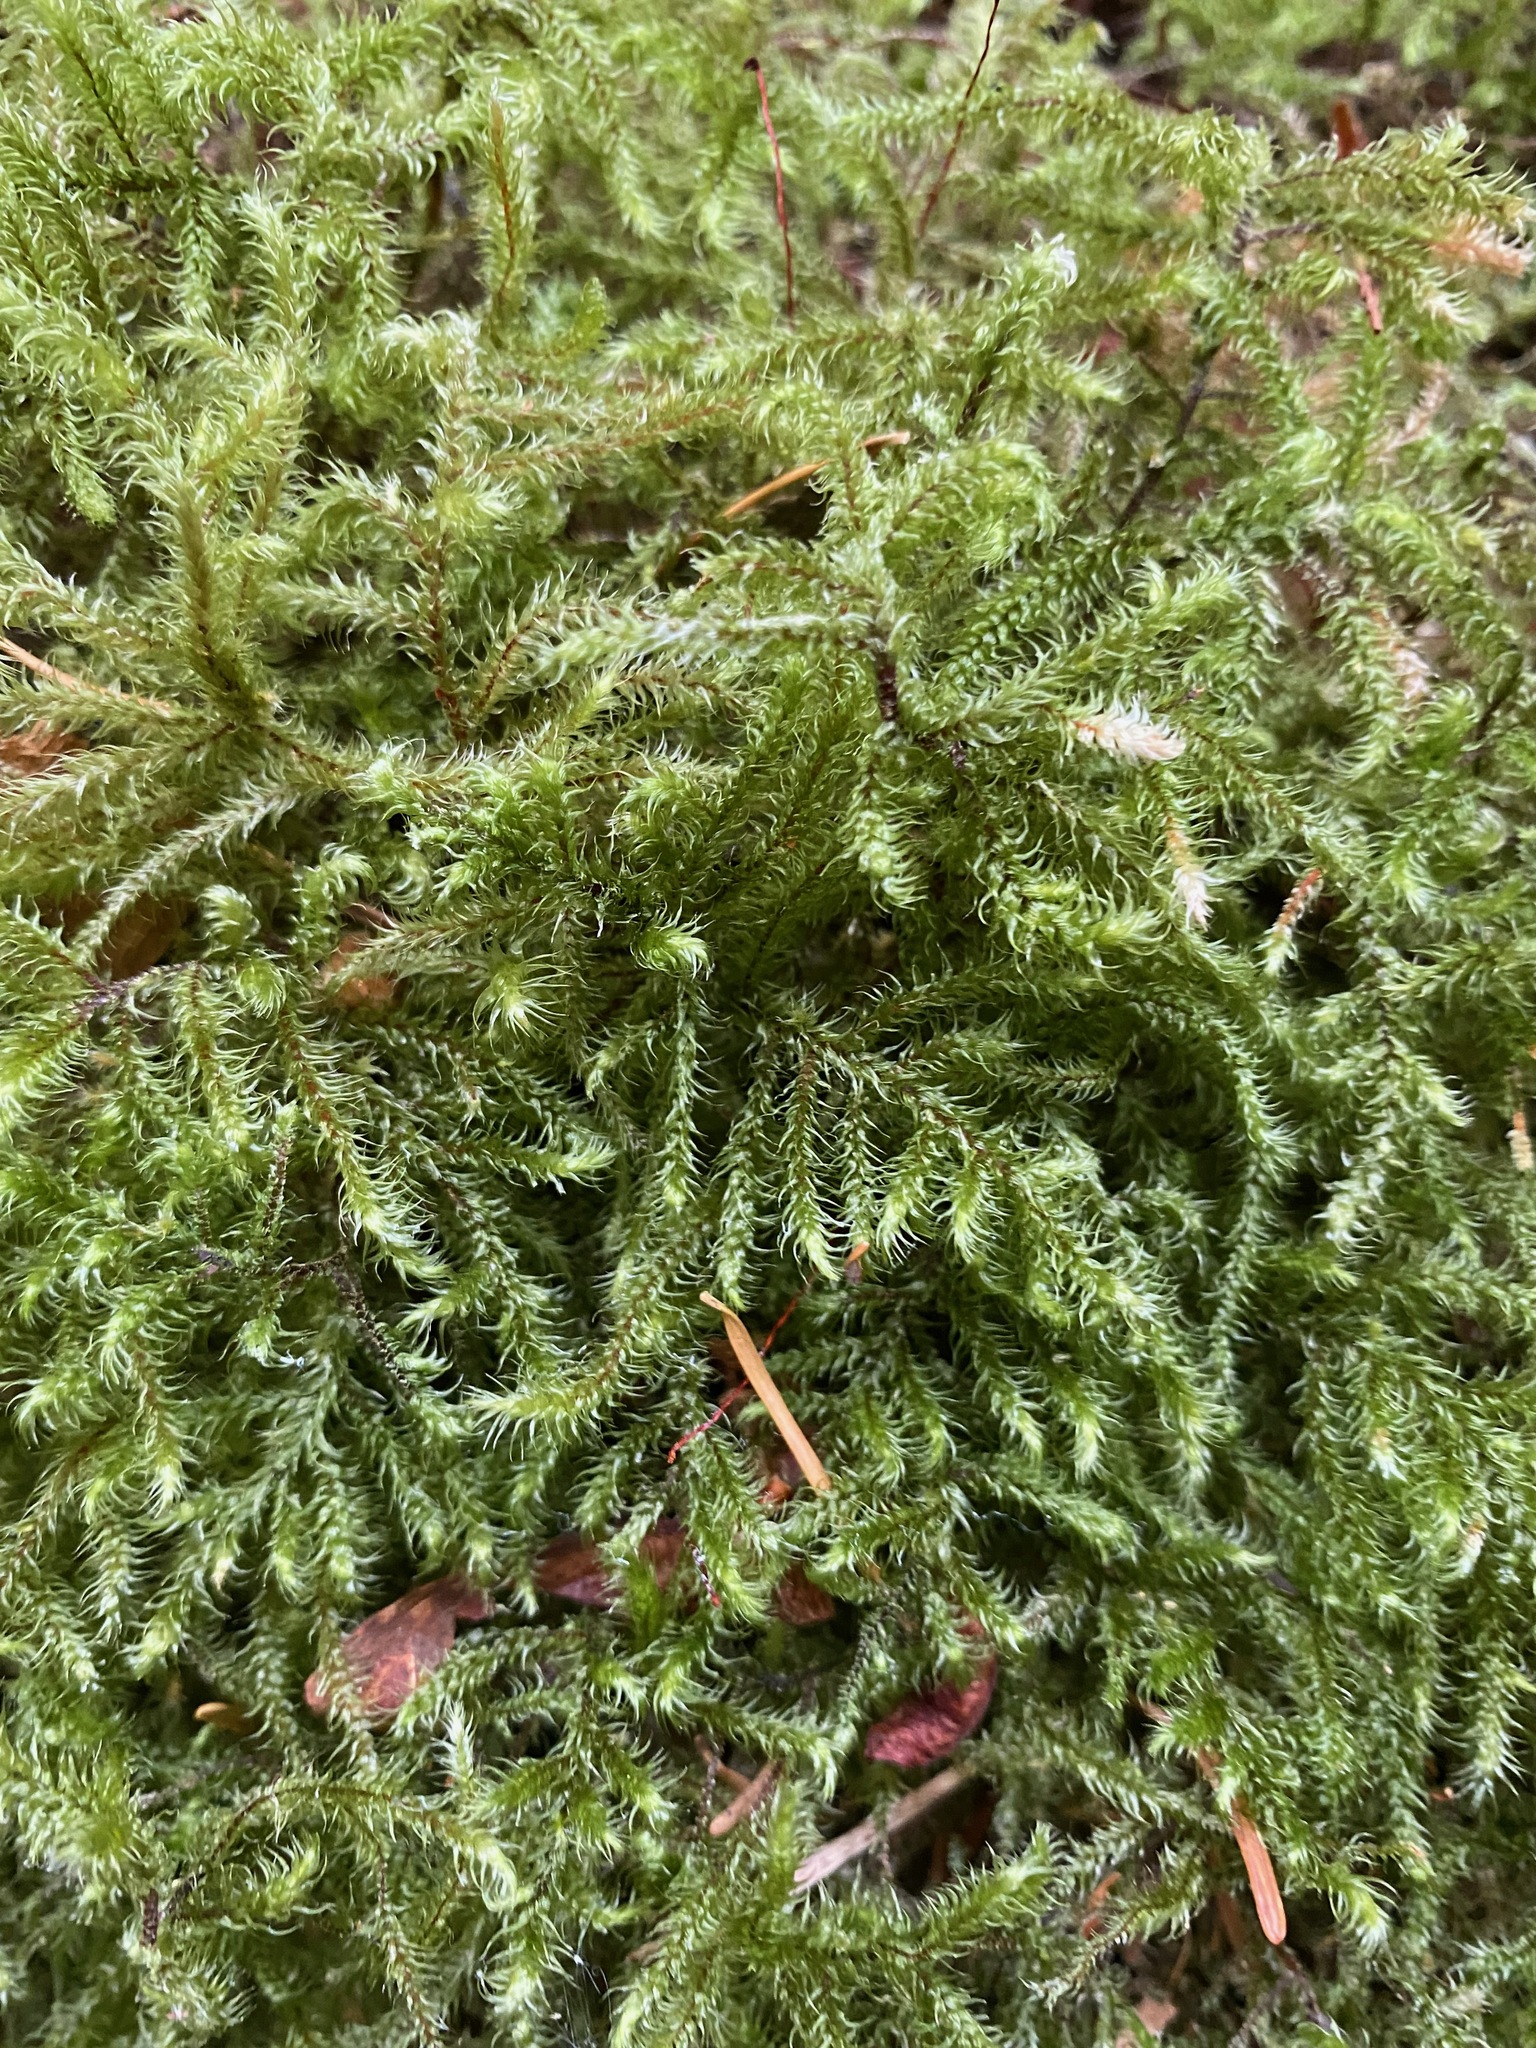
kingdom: Plantae
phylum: Bryophyta
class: Bryopsida
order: Hypnales
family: Hylocomiaceae
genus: Rhytidiadelphus
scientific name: Rhytidiadelphus loreus
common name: Lanky moss
